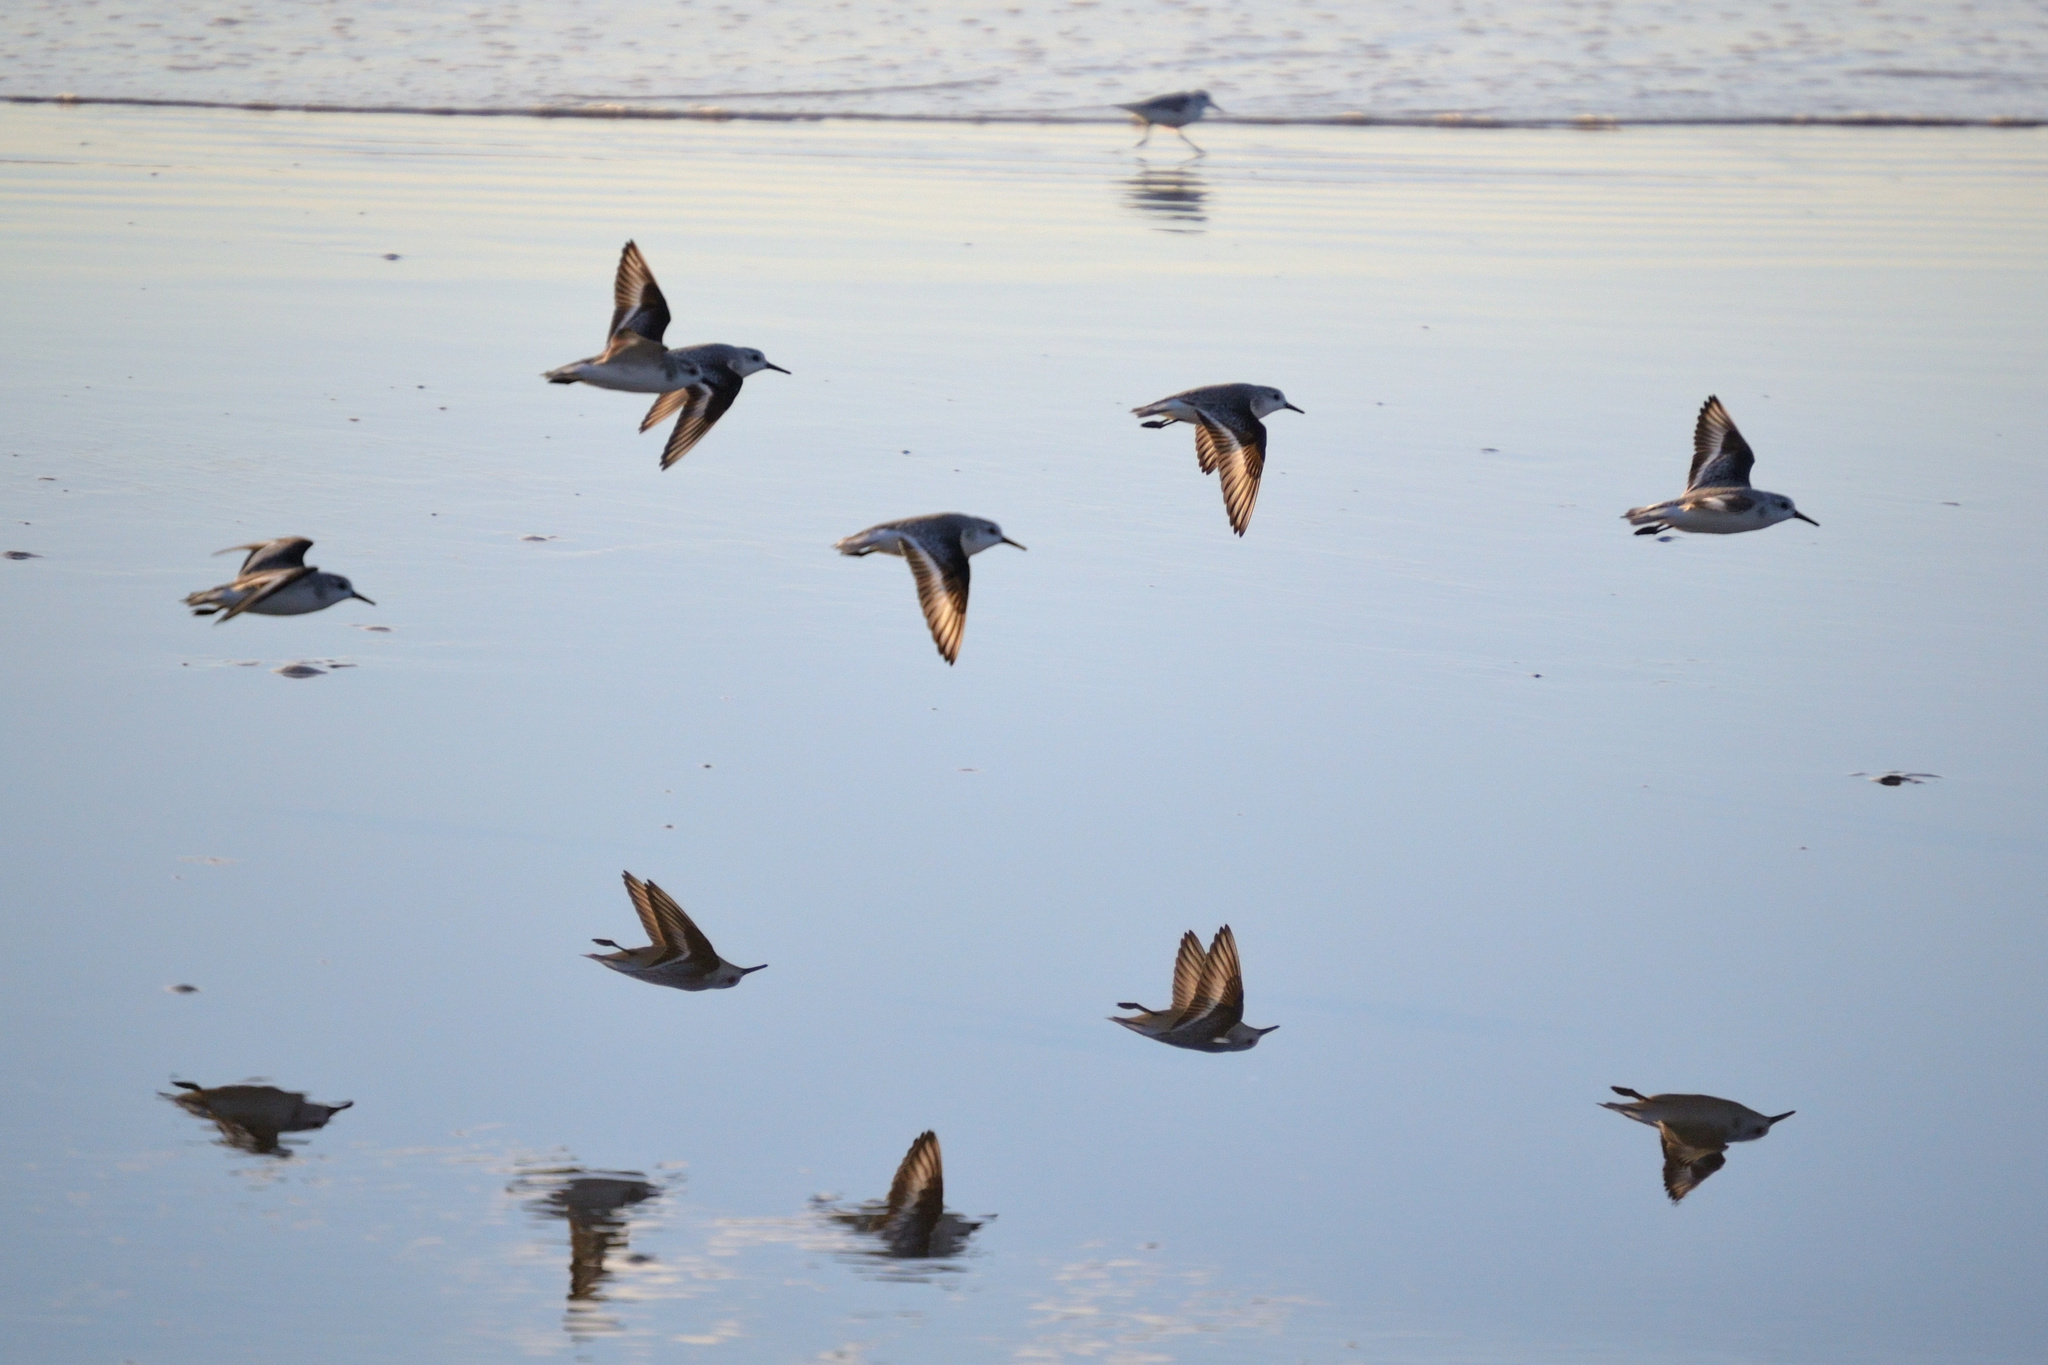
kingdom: Animalia
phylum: Chordata
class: Aves
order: Charadriiformes
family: Scolopacidae
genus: Calidris
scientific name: Calidris alba
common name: Sanderling
